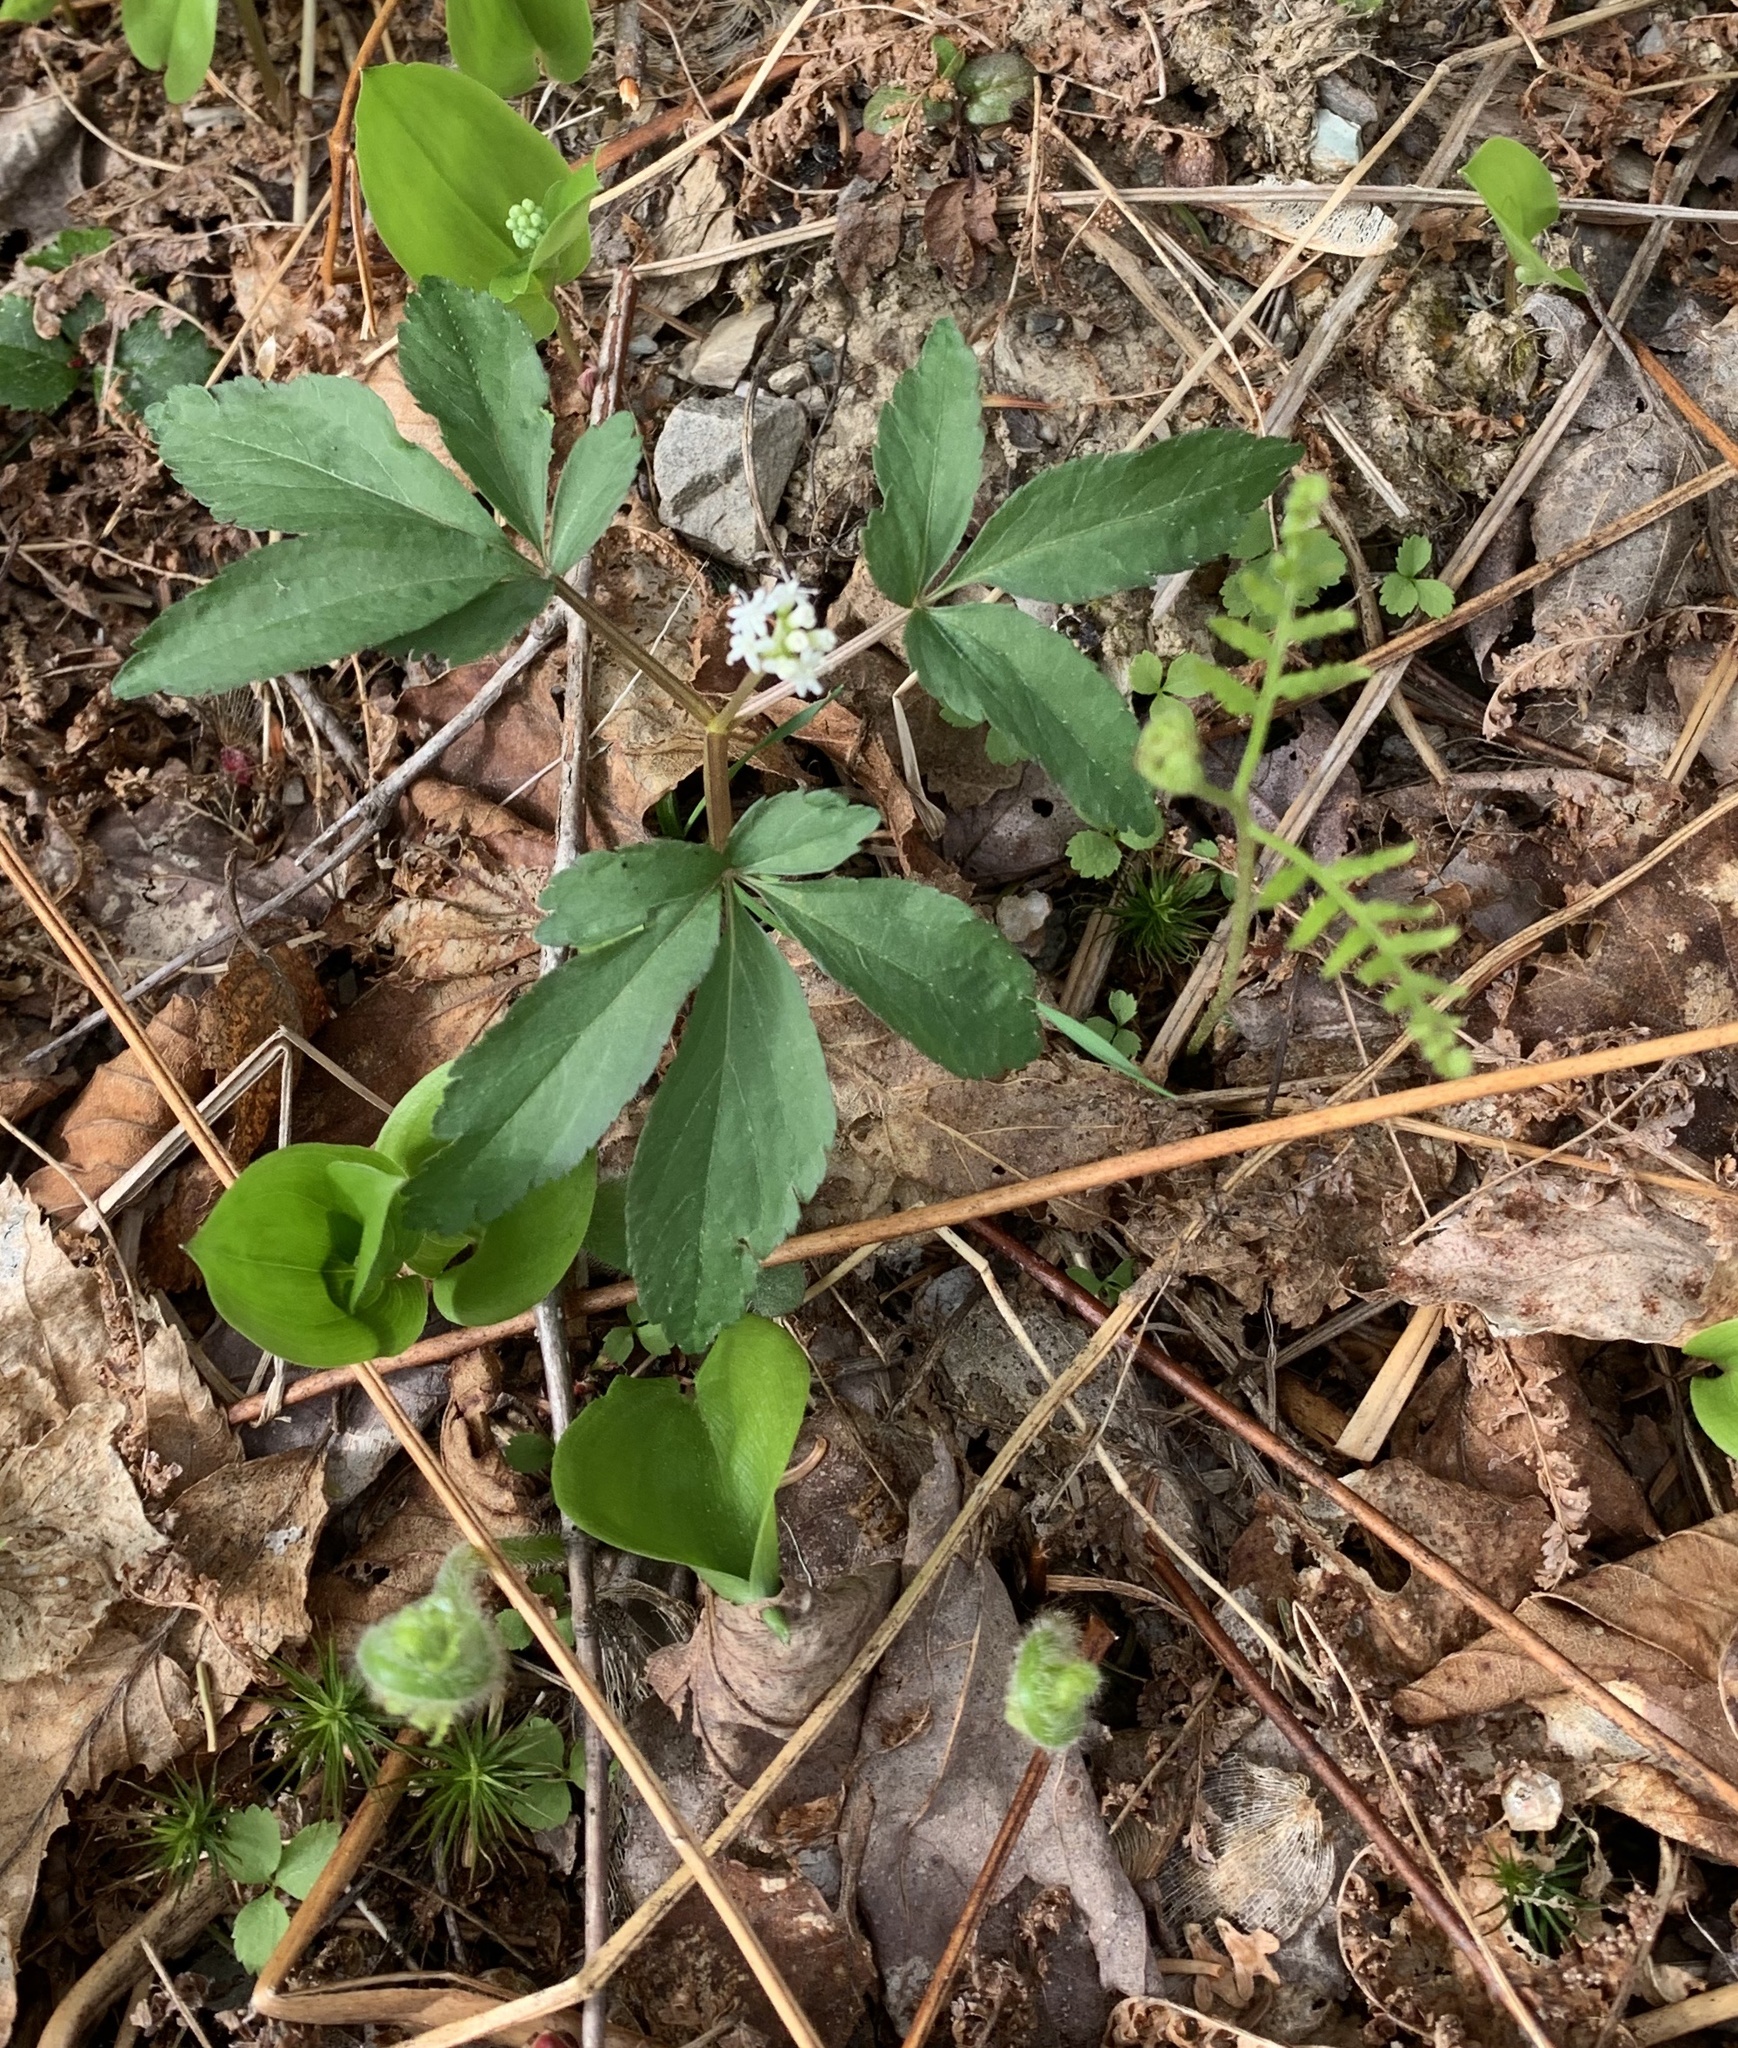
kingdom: Plantae
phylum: Tracheophyta
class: Magnoliopsida
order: Apiales
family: Araliaceae
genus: Panax
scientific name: Panax trifolius
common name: Dwarf ginseng
